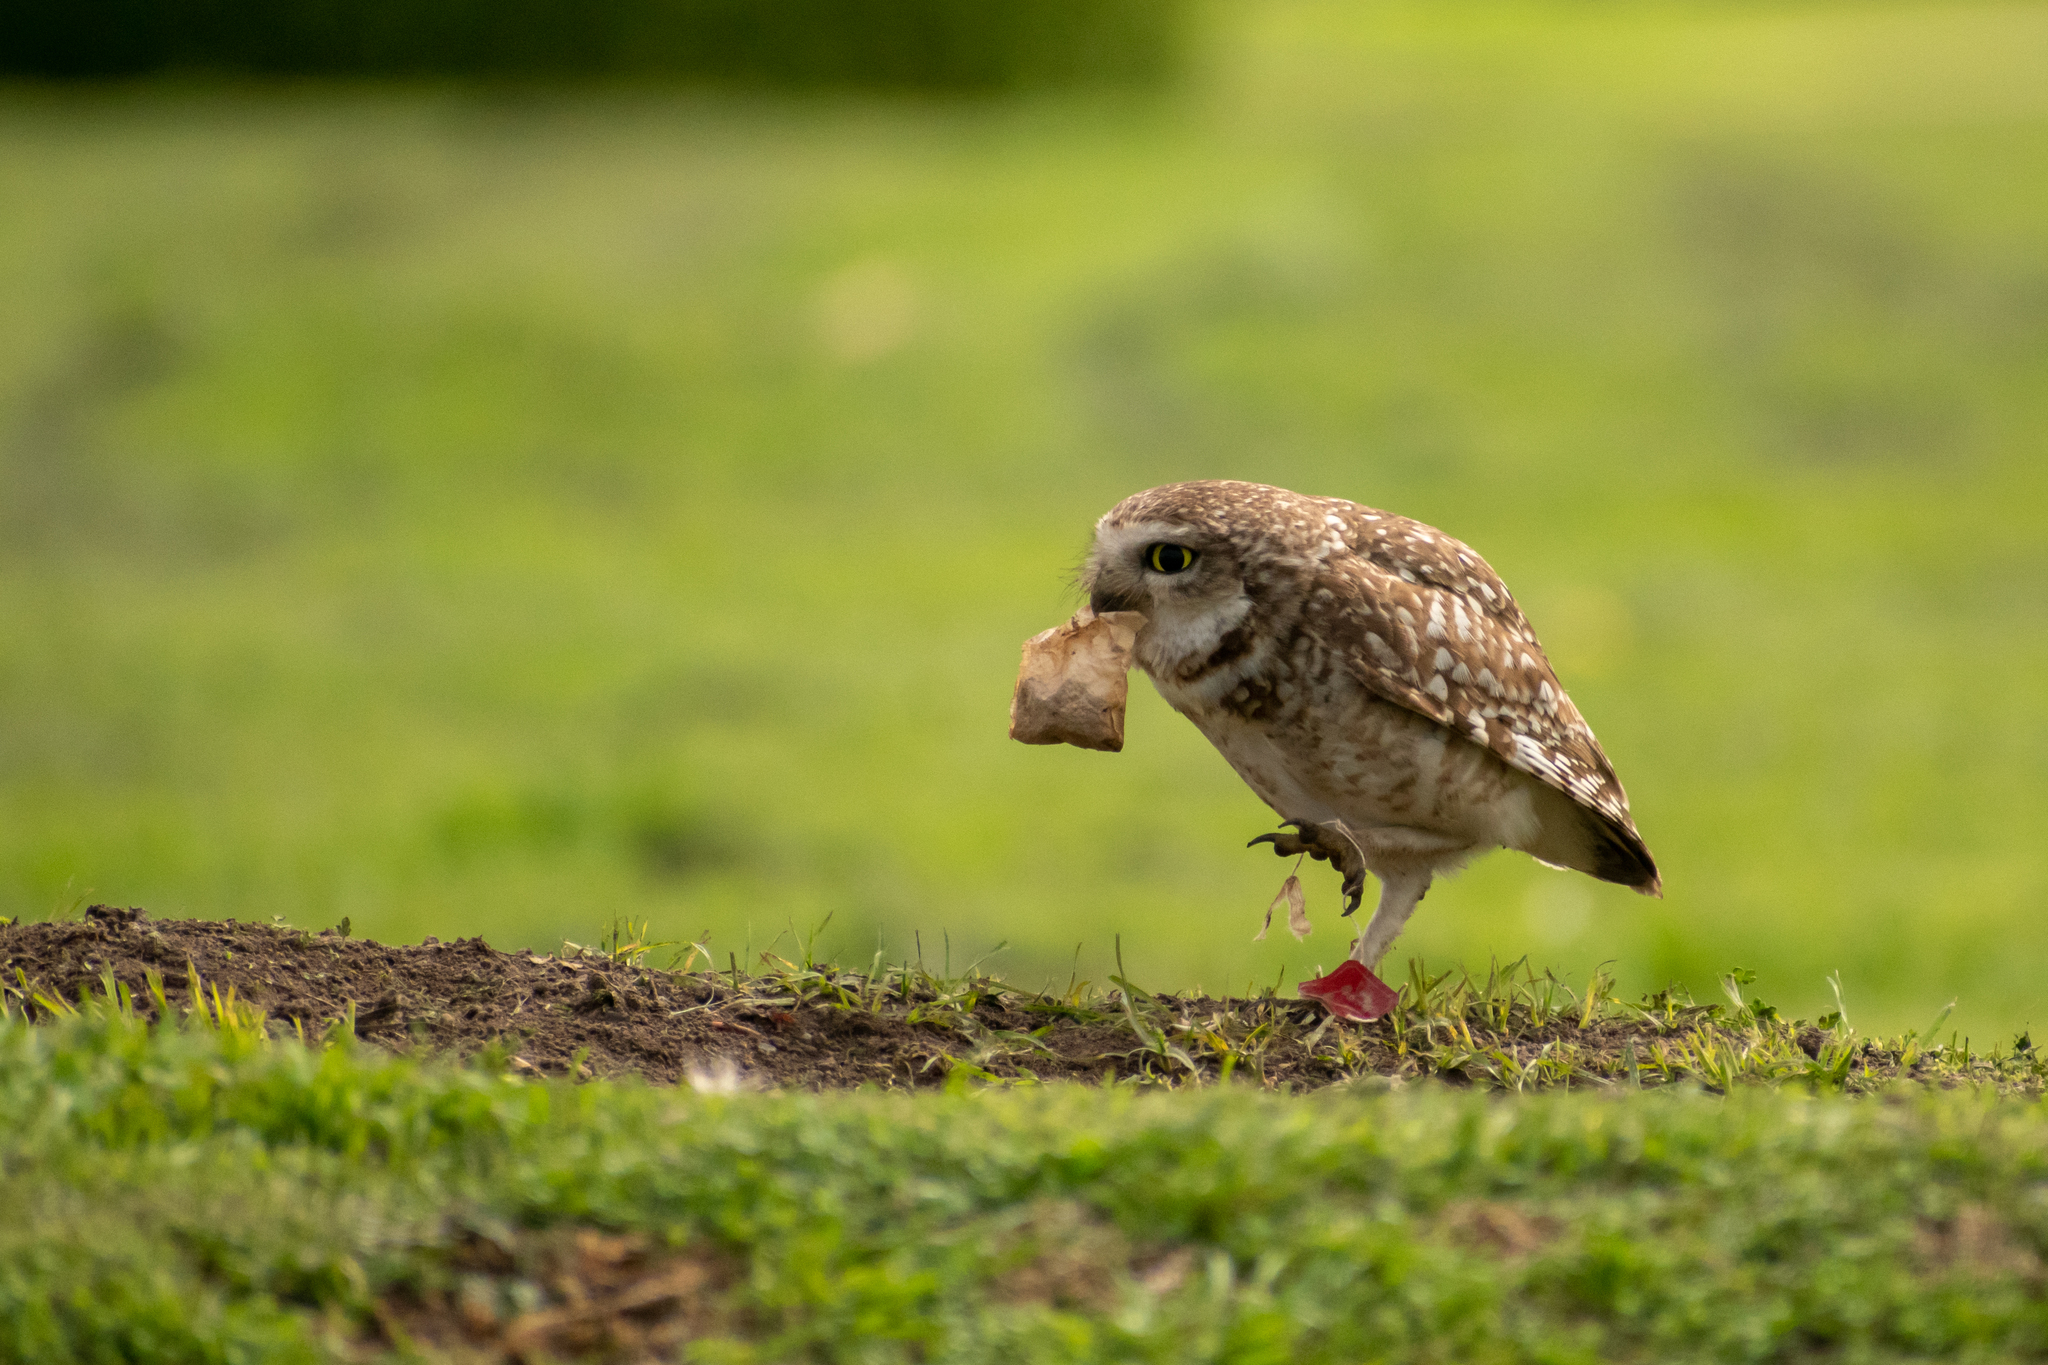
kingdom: Animalia
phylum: Chordata
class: Aves
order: Strigiformes
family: Strigidae
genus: Athene
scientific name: Athene cunicularia
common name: Burrowing owl
